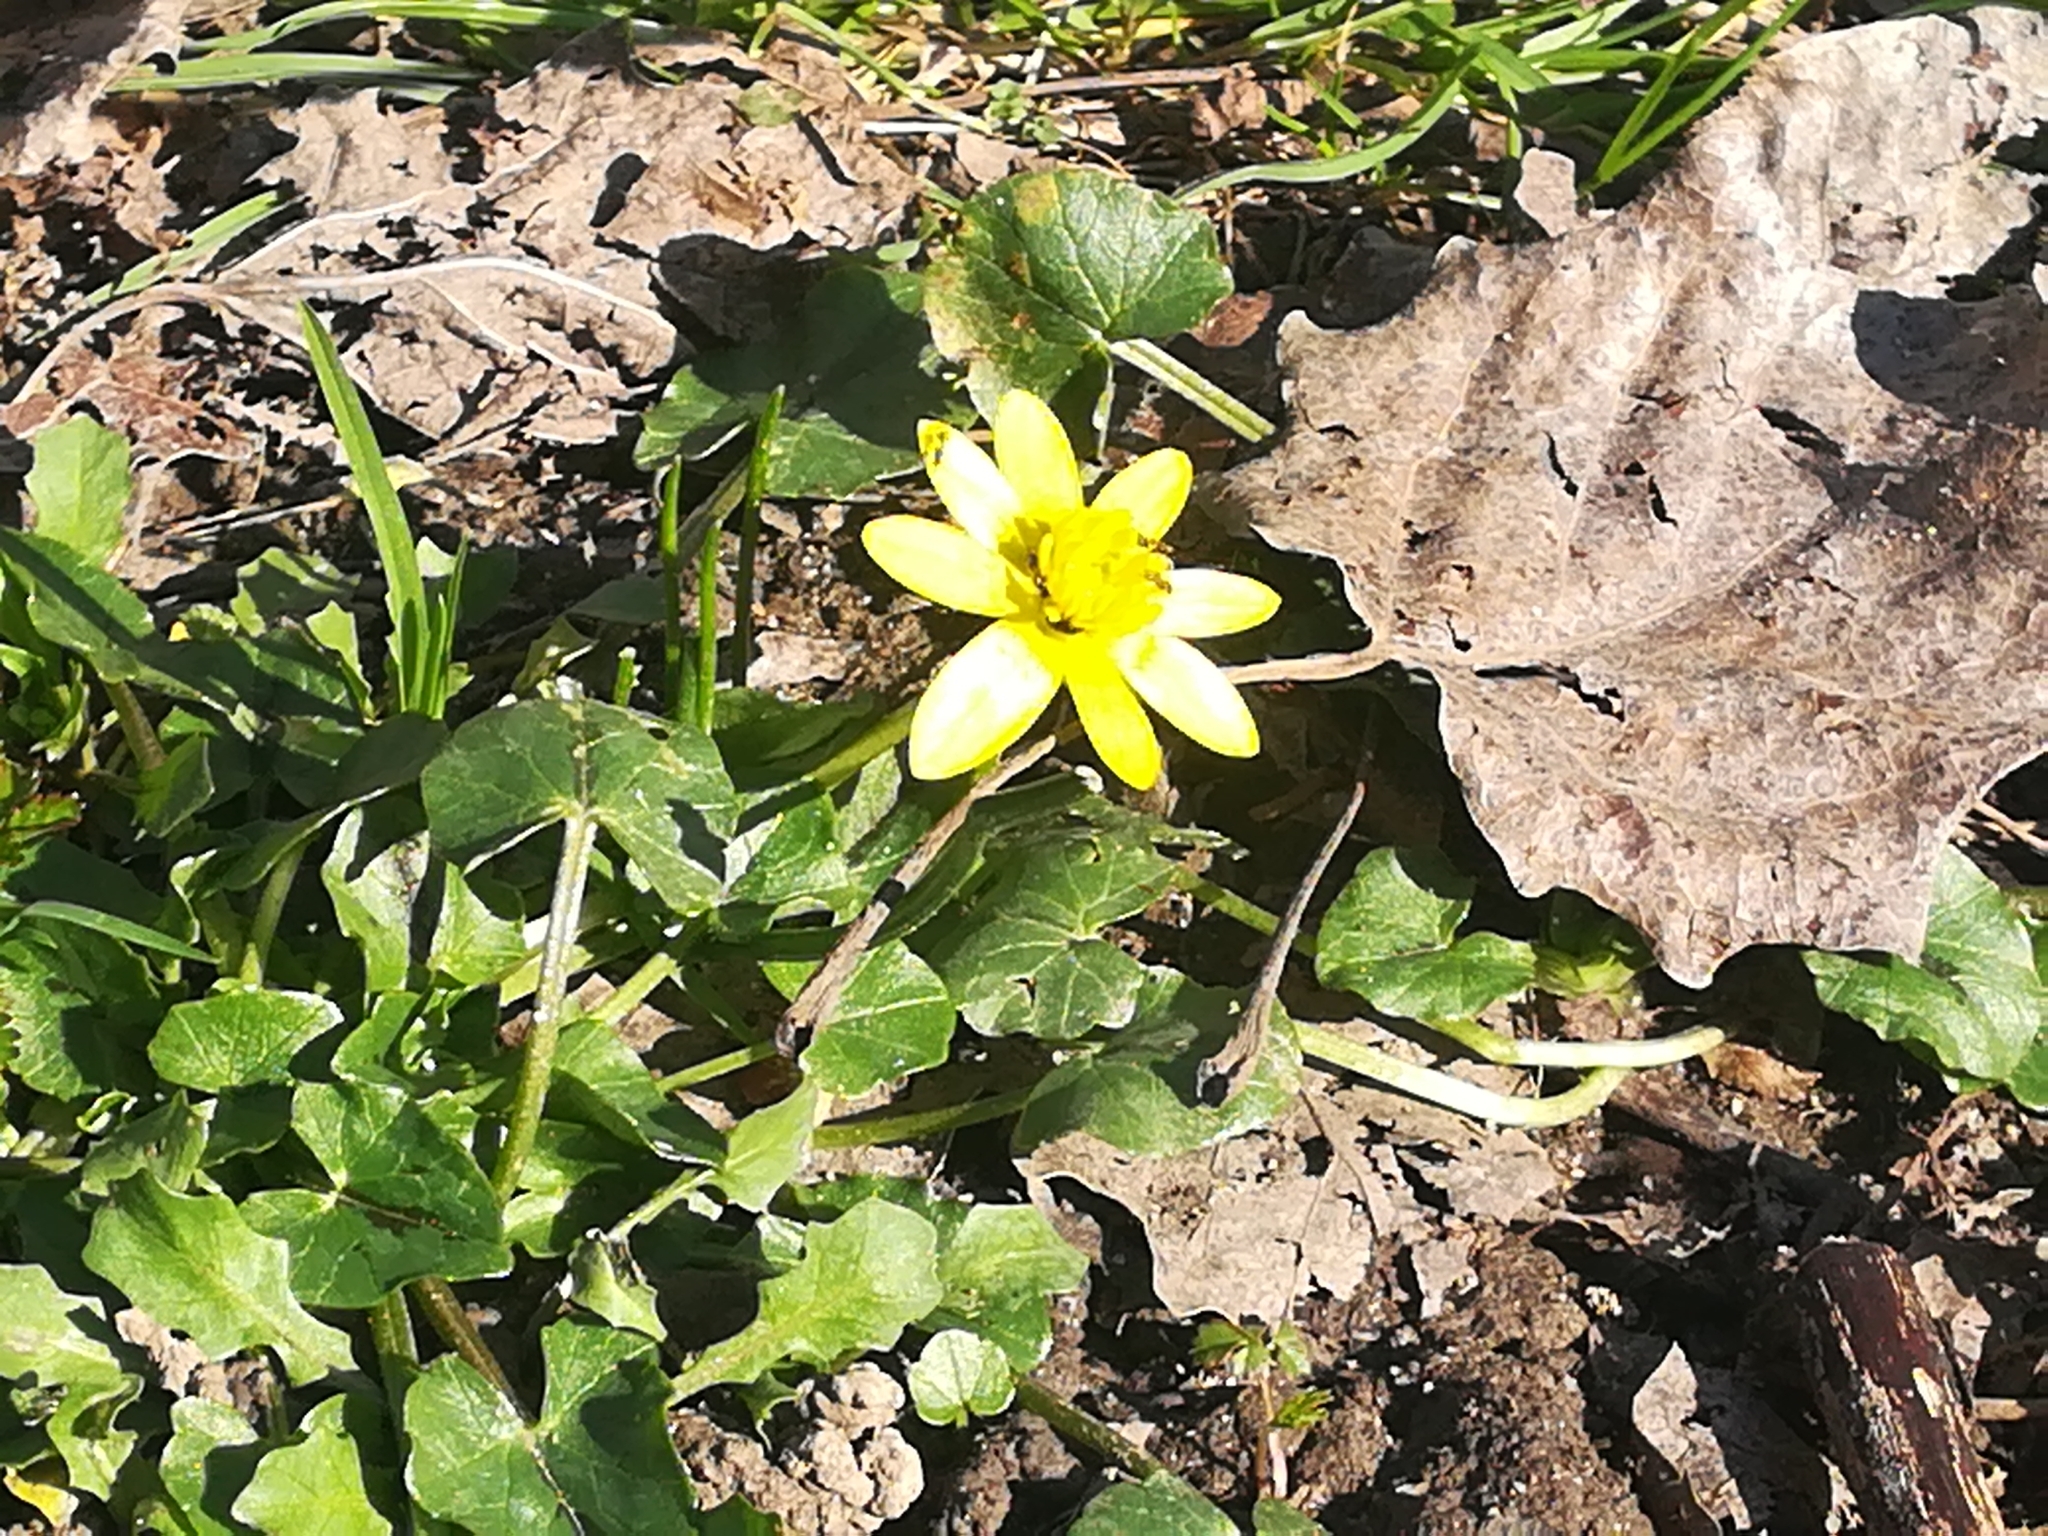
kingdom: Plantae
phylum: Tracheophyta
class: Magnoliopsida
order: Ranunculales
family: Ranunculaceae
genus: Ficaria
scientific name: Ficaria verna
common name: Lesser celandine
